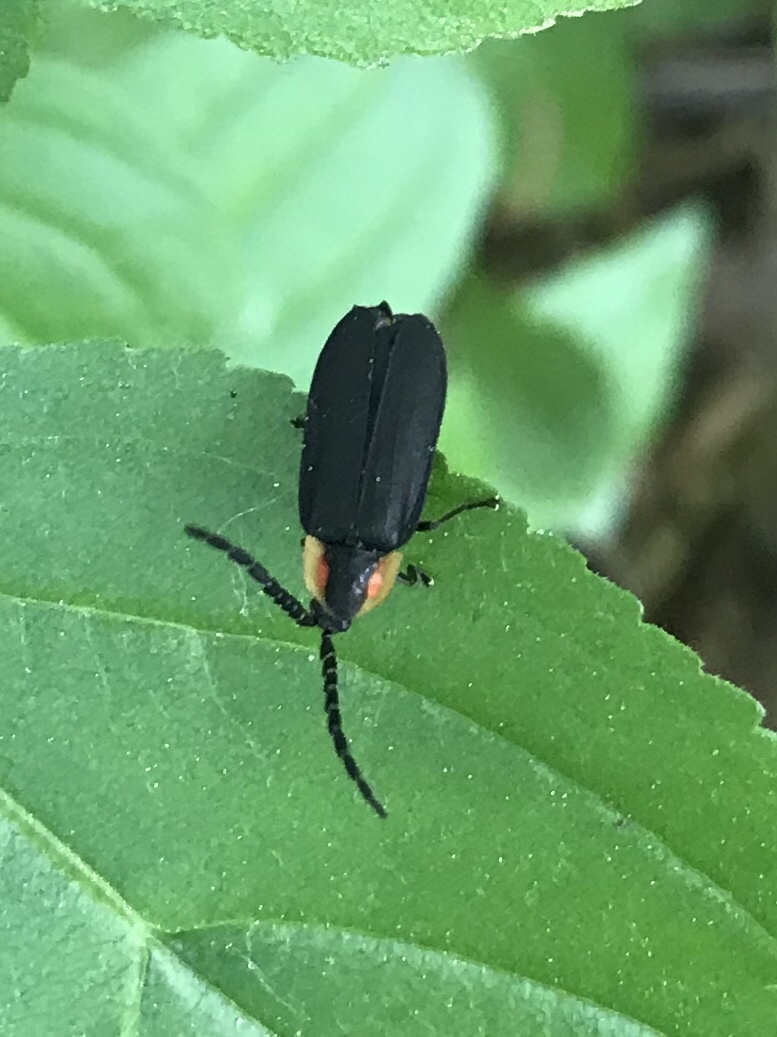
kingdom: Animalia
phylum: Arthropoda
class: Insecta
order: Coleoptera
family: Lampyridae
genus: Lucidota
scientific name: Lucidota atra
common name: Black firefly
